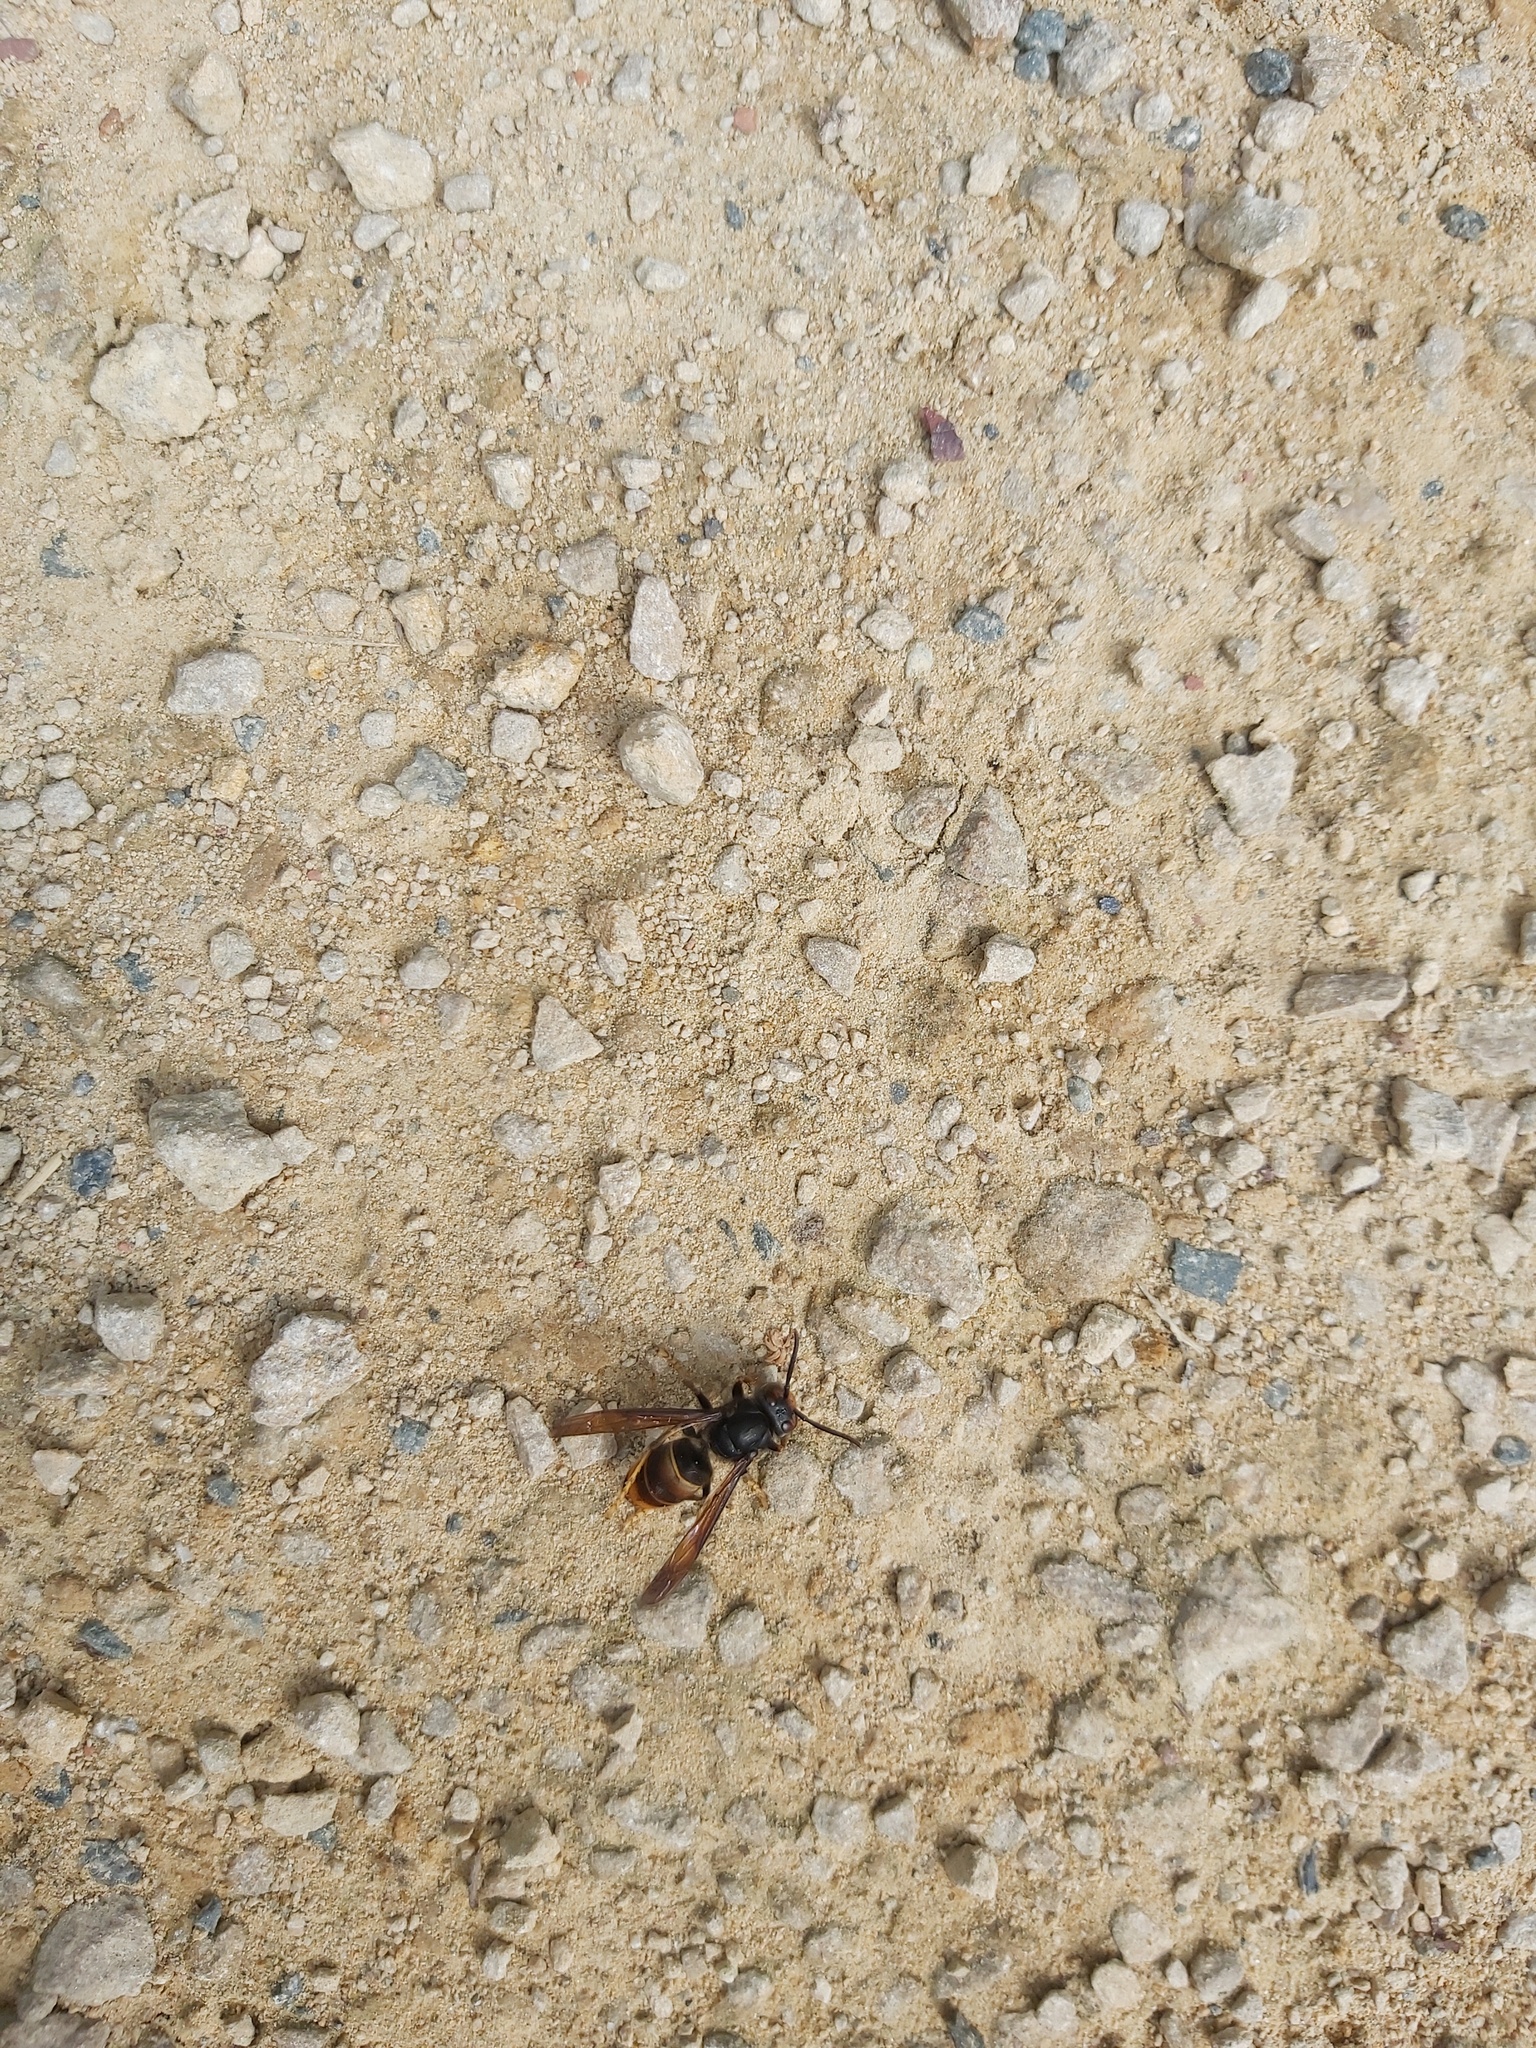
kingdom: Animalia
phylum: Arthropoda
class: Insecta
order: Hymenoptera
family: Vespidae
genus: Vespa
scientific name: Vespa velutina
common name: Asian hornet
